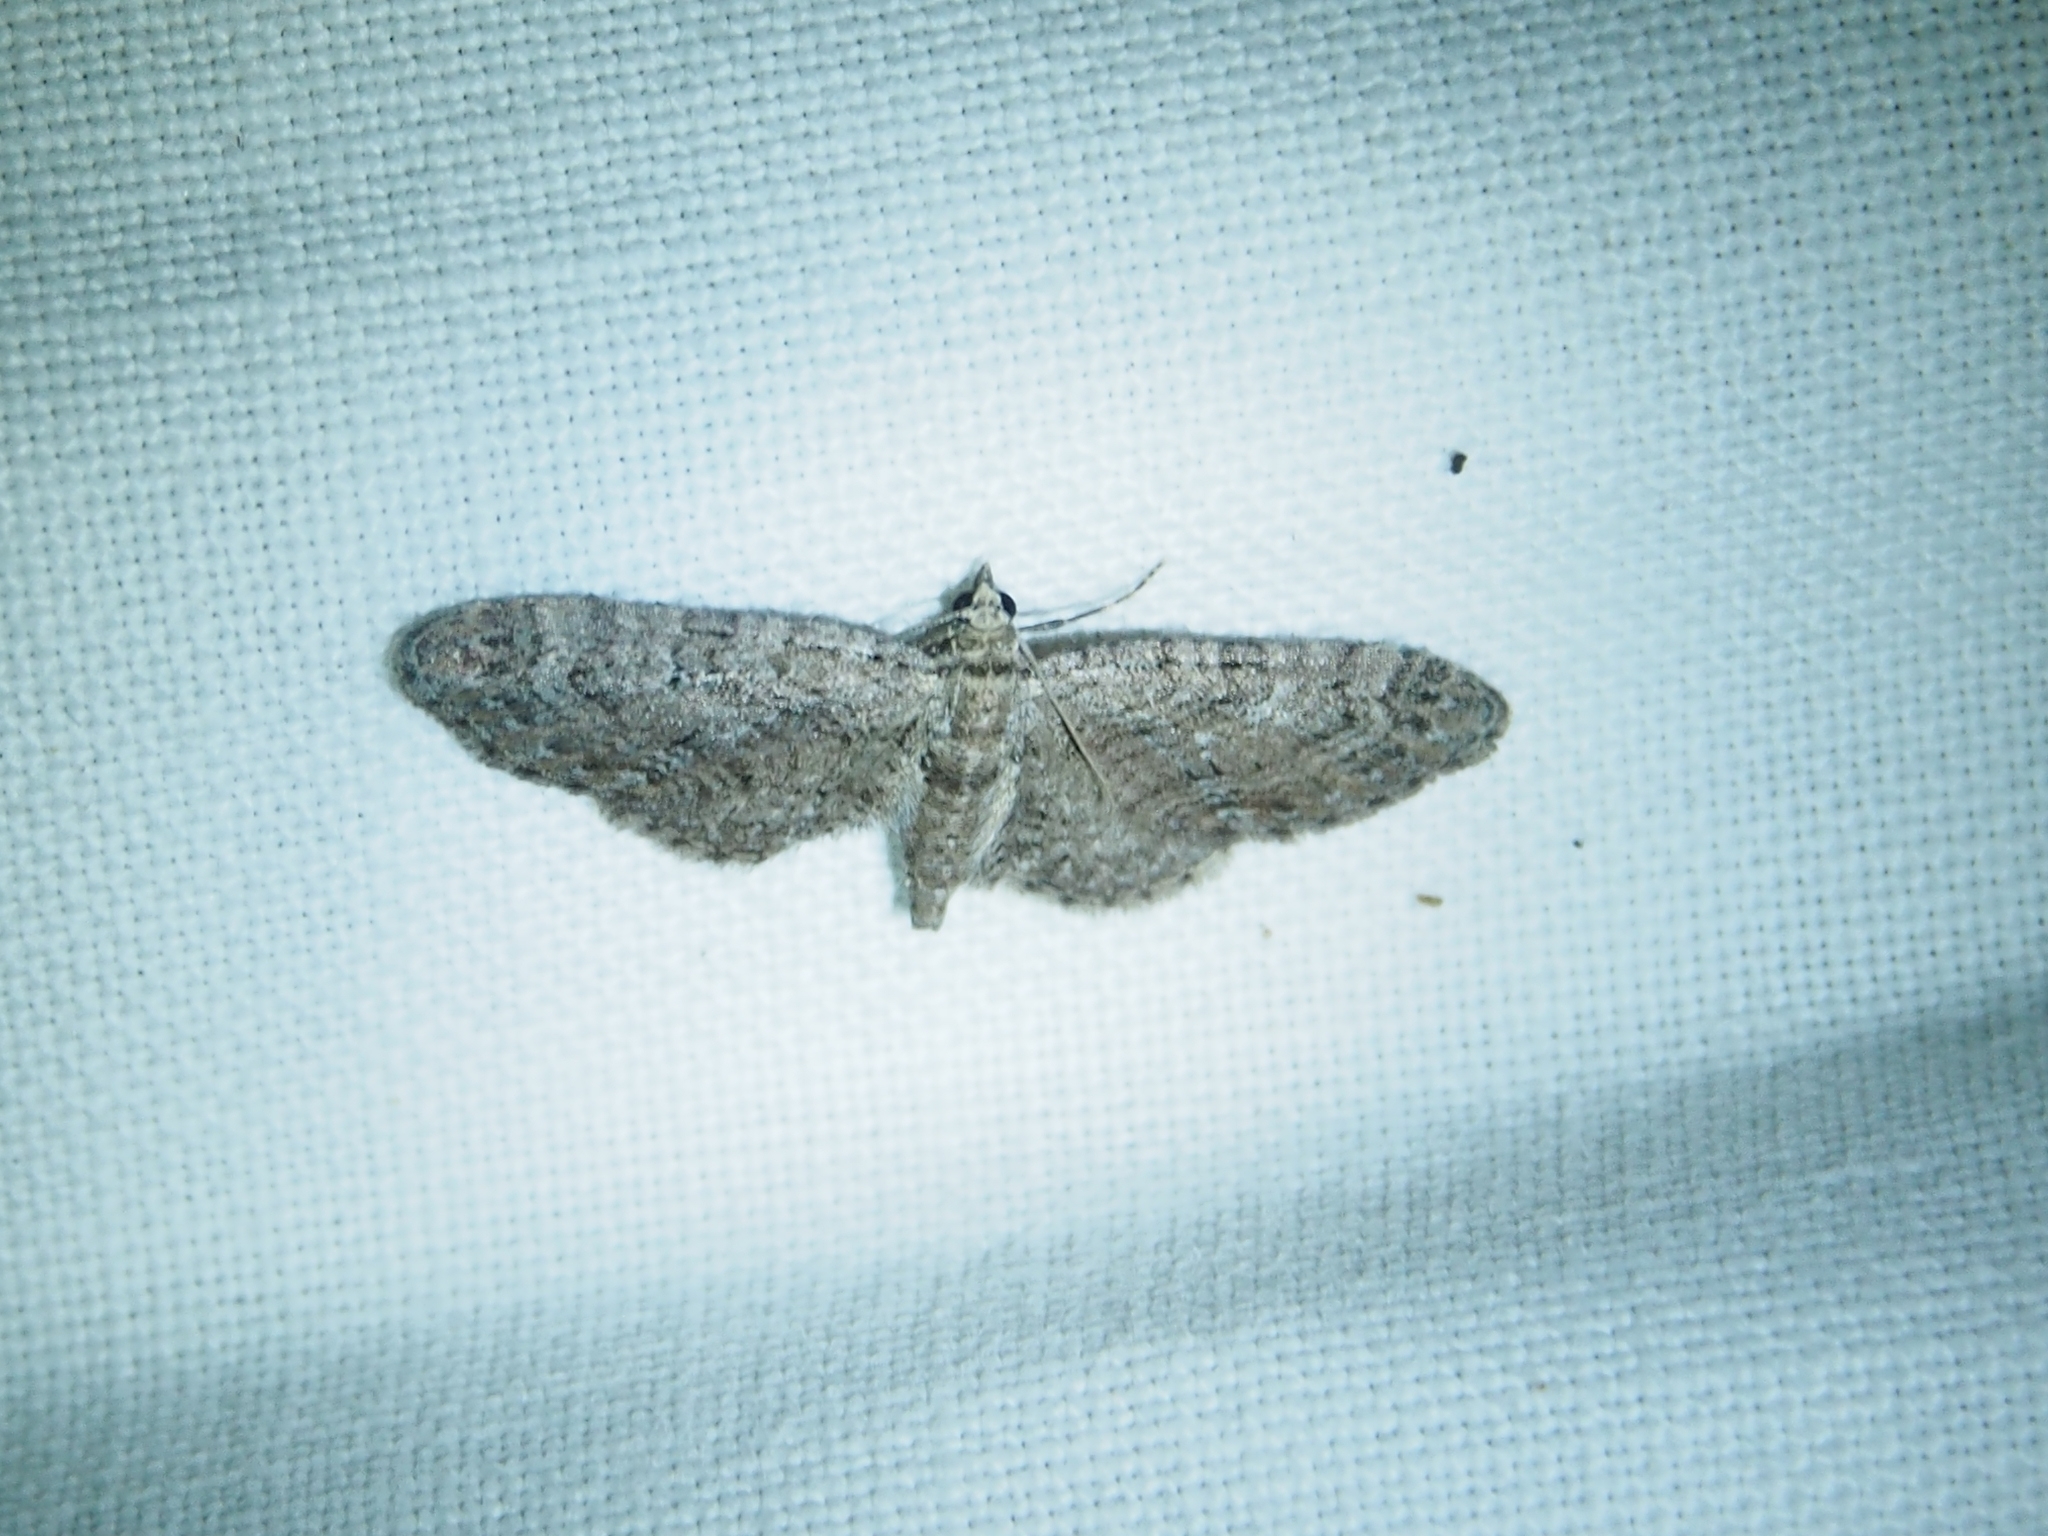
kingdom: Animalia
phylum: Arthropoda
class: Insecta
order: Lepidoptera
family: Geometridae
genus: Eupithecia
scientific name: Eupithecia innotata
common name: Angle-barred pug
